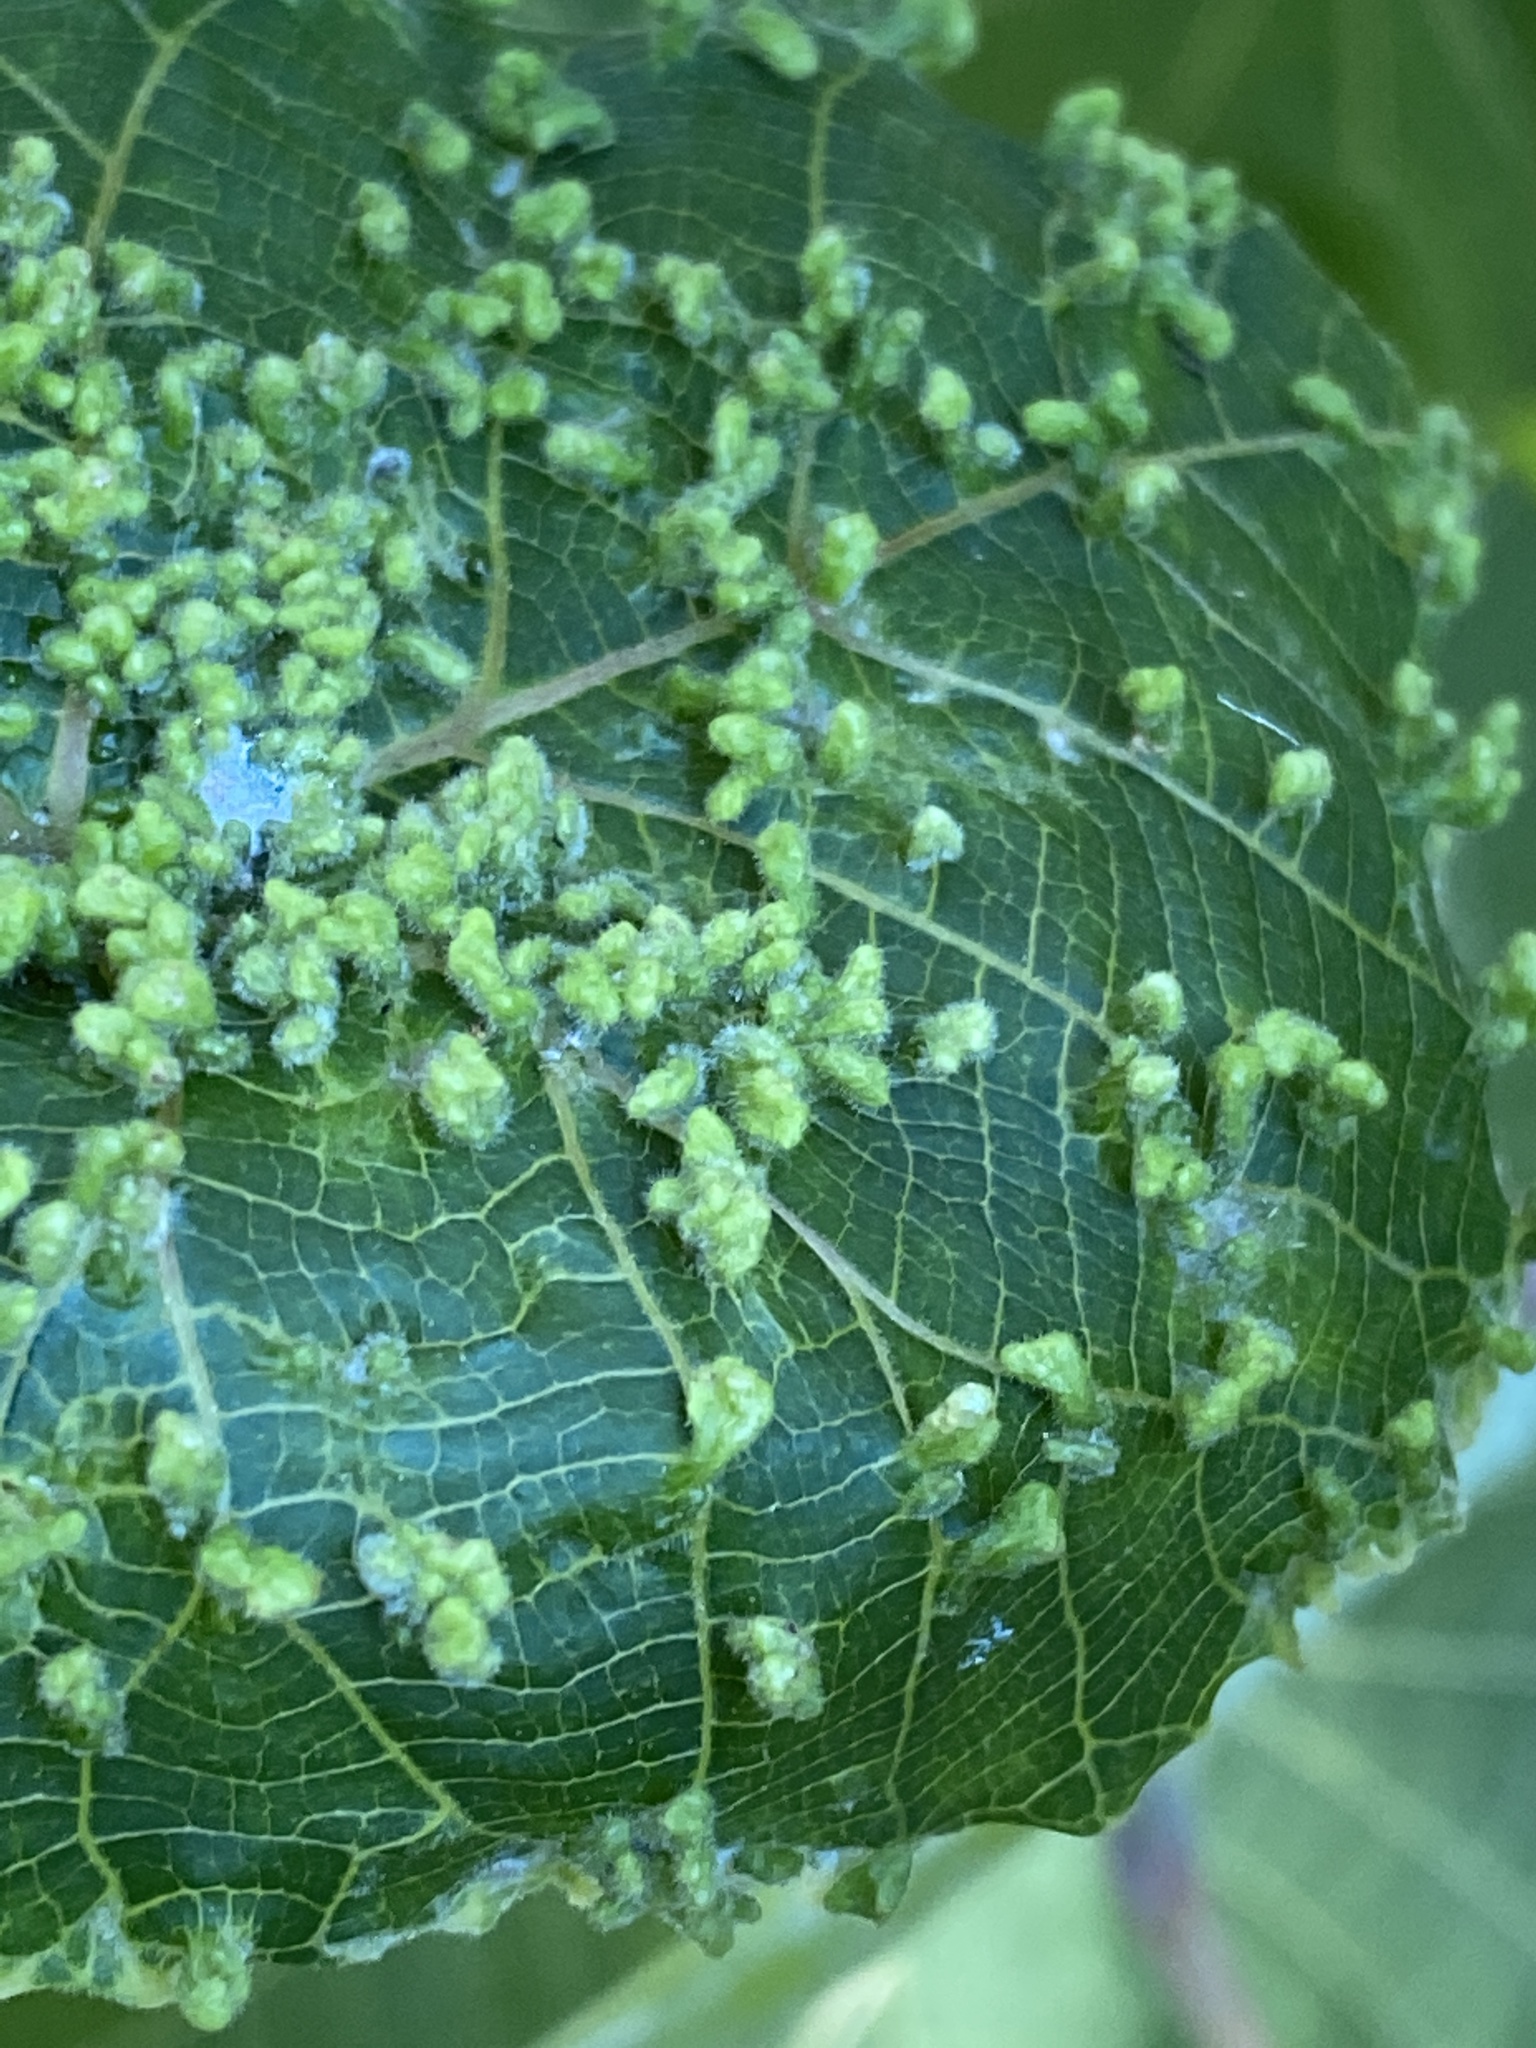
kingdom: Animalia
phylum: Arthropoda
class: Arachnida
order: Trombidiformes
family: Eriophyidae
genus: Aceria
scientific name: Aceria hibisci
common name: Mite
